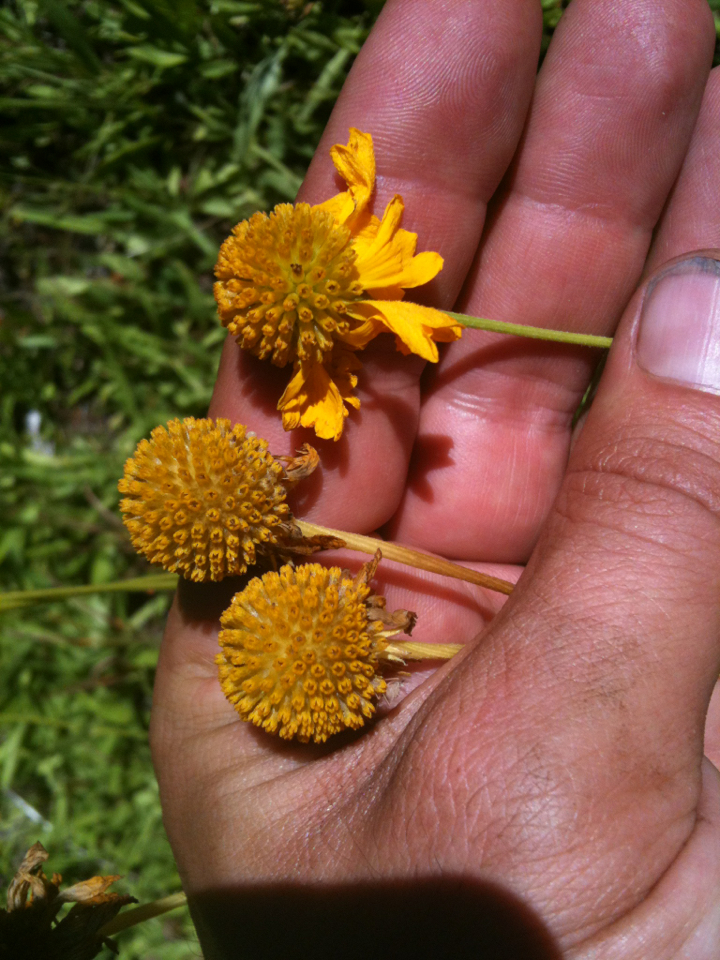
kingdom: Plantae
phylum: Tracheophyta
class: Magnoliopsida
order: Asterales
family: Asteraceae
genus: Helenium
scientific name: Helenium bigelovii
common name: Bigelow's sneezeweed
